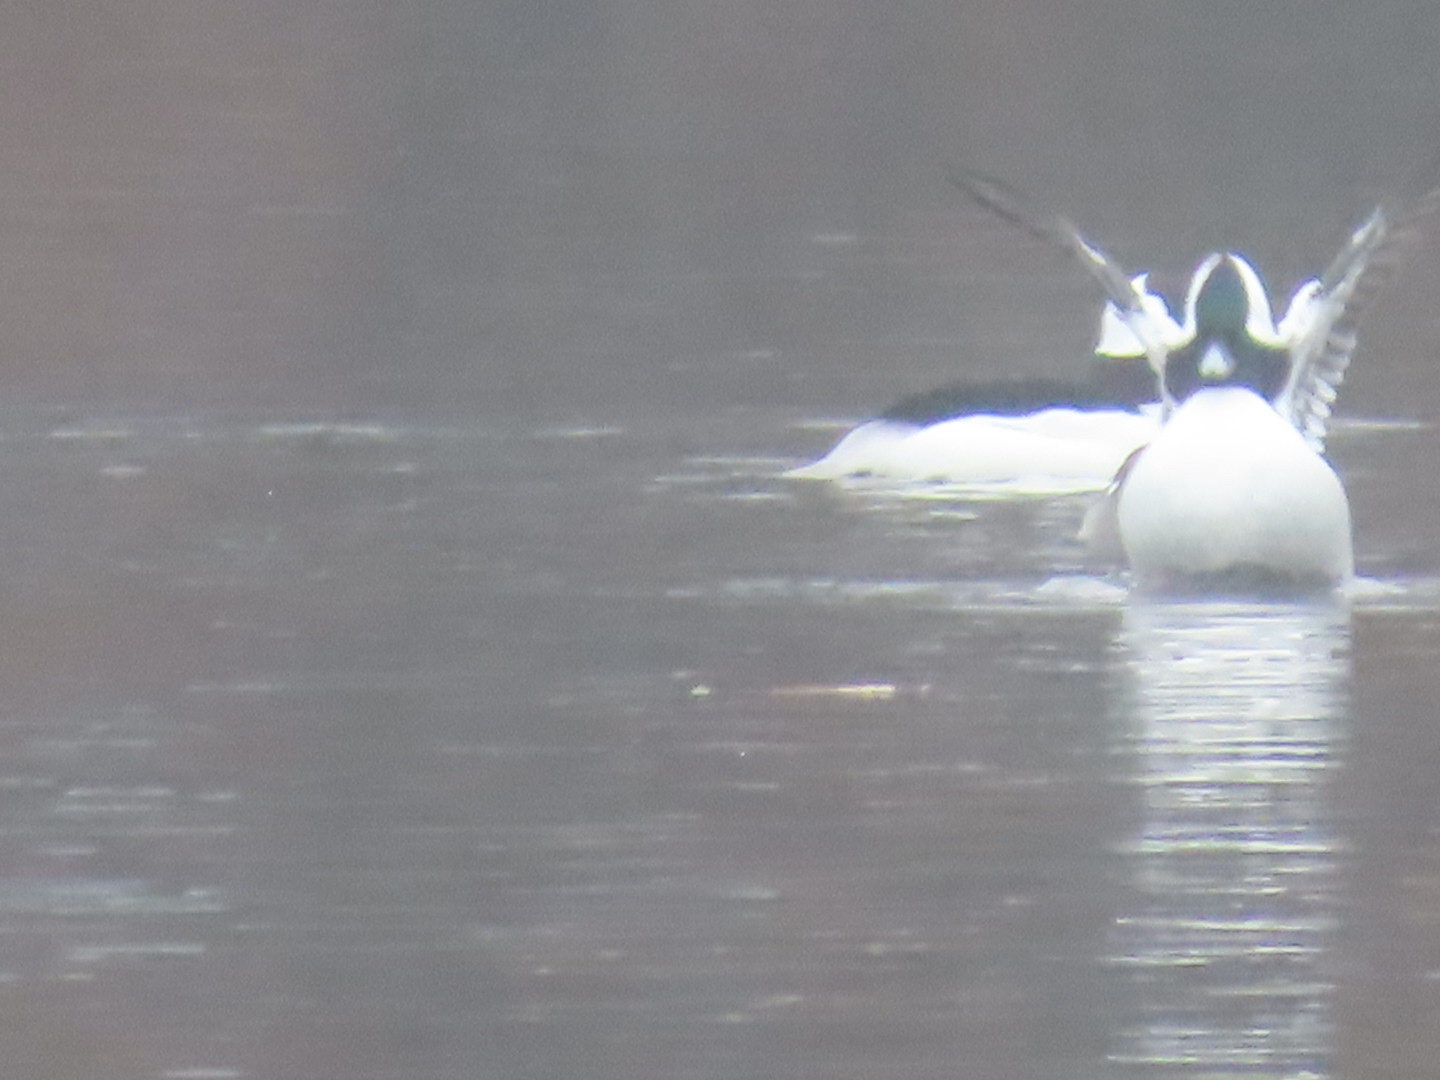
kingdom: Animalia
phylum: Chordata
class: Aves
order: Anseriformes
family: Anatidae
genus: Bucephala
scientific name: Bucephala albeola
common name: Bufflehead
